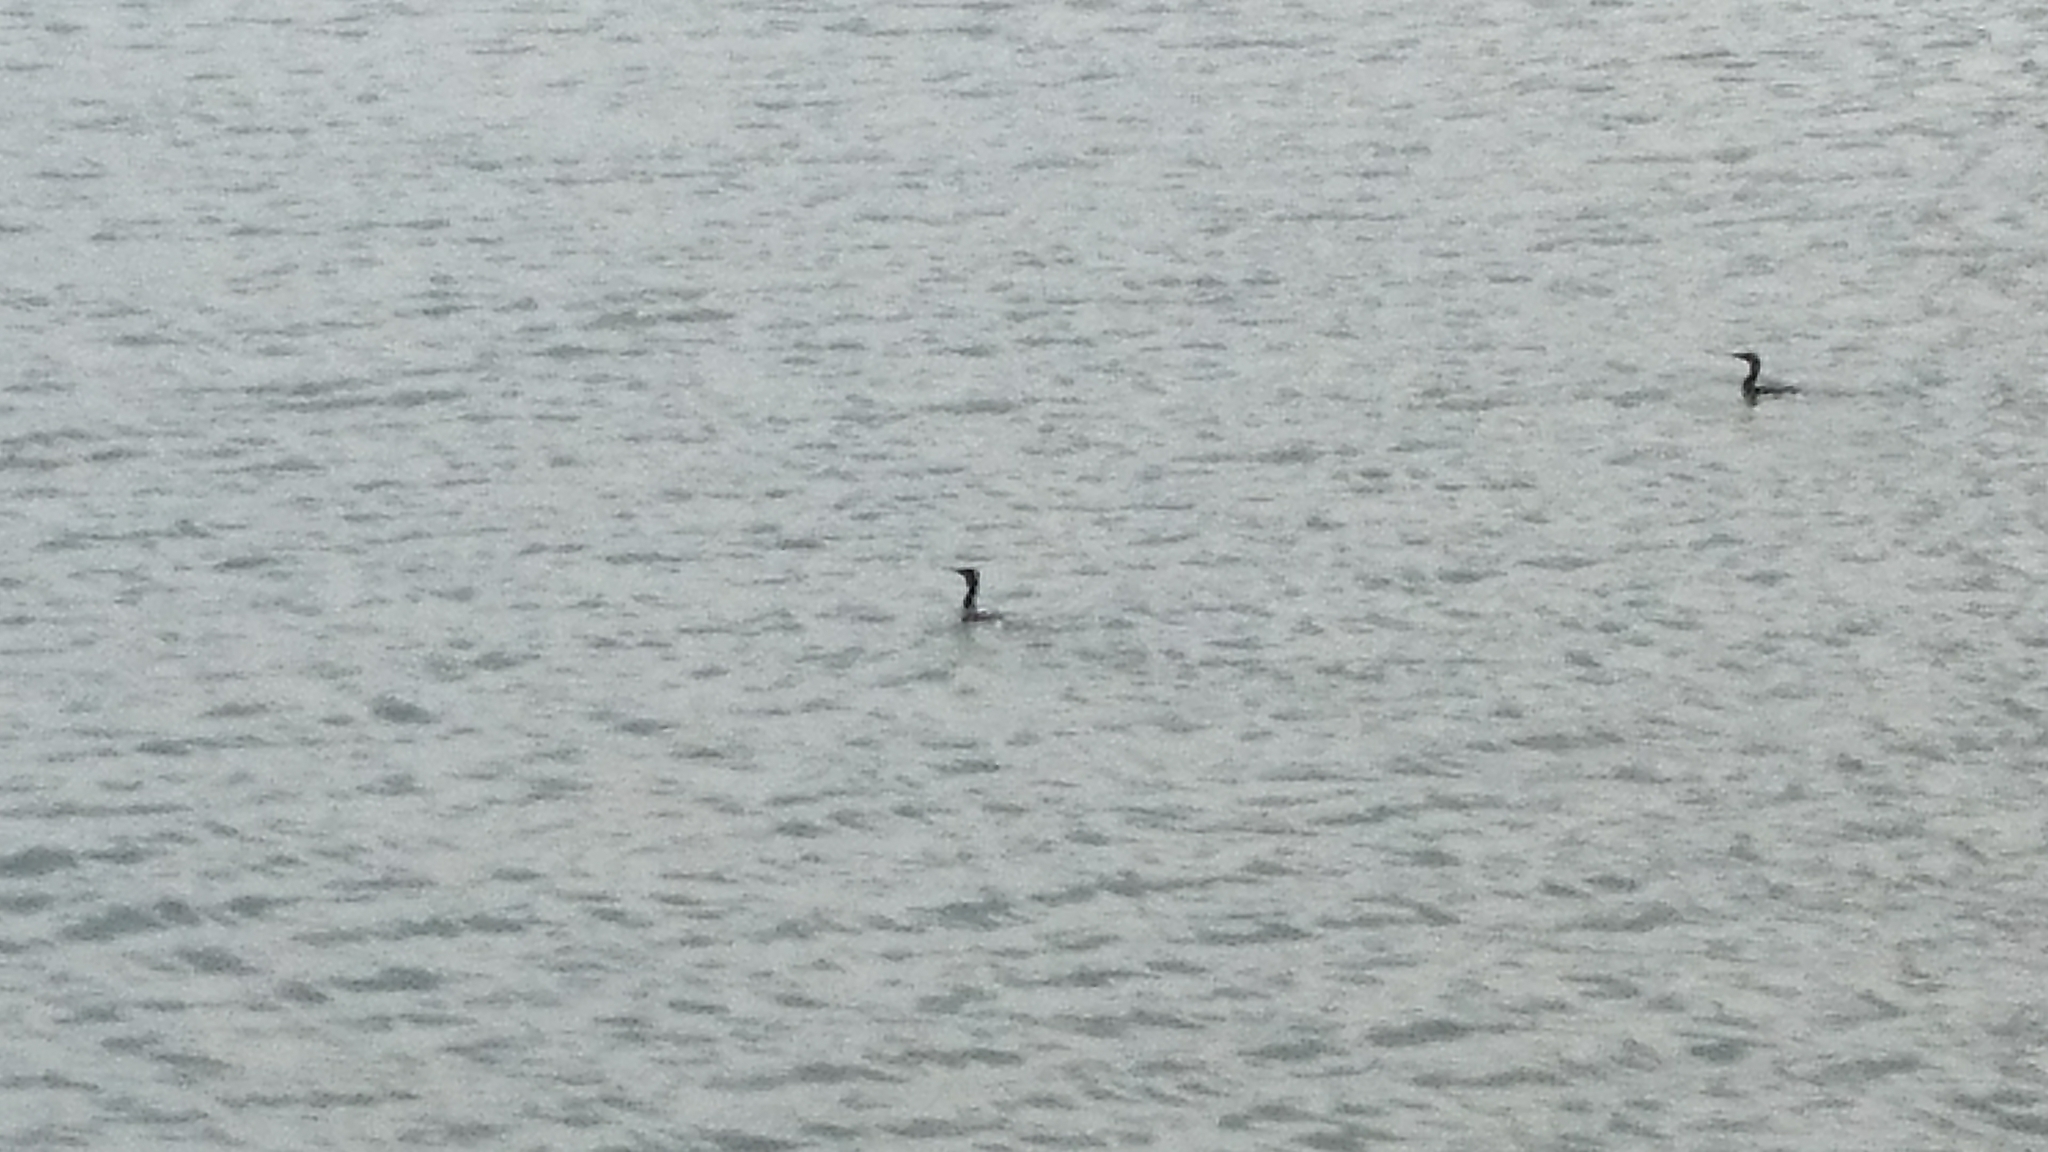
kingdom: Animalia
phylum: Chordata
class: Aves
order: Suliformes
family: Phalacrocoracidae
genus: Phalacrocorax
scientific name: Phalacrocorax sulcirostris
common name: Little black cormorant
